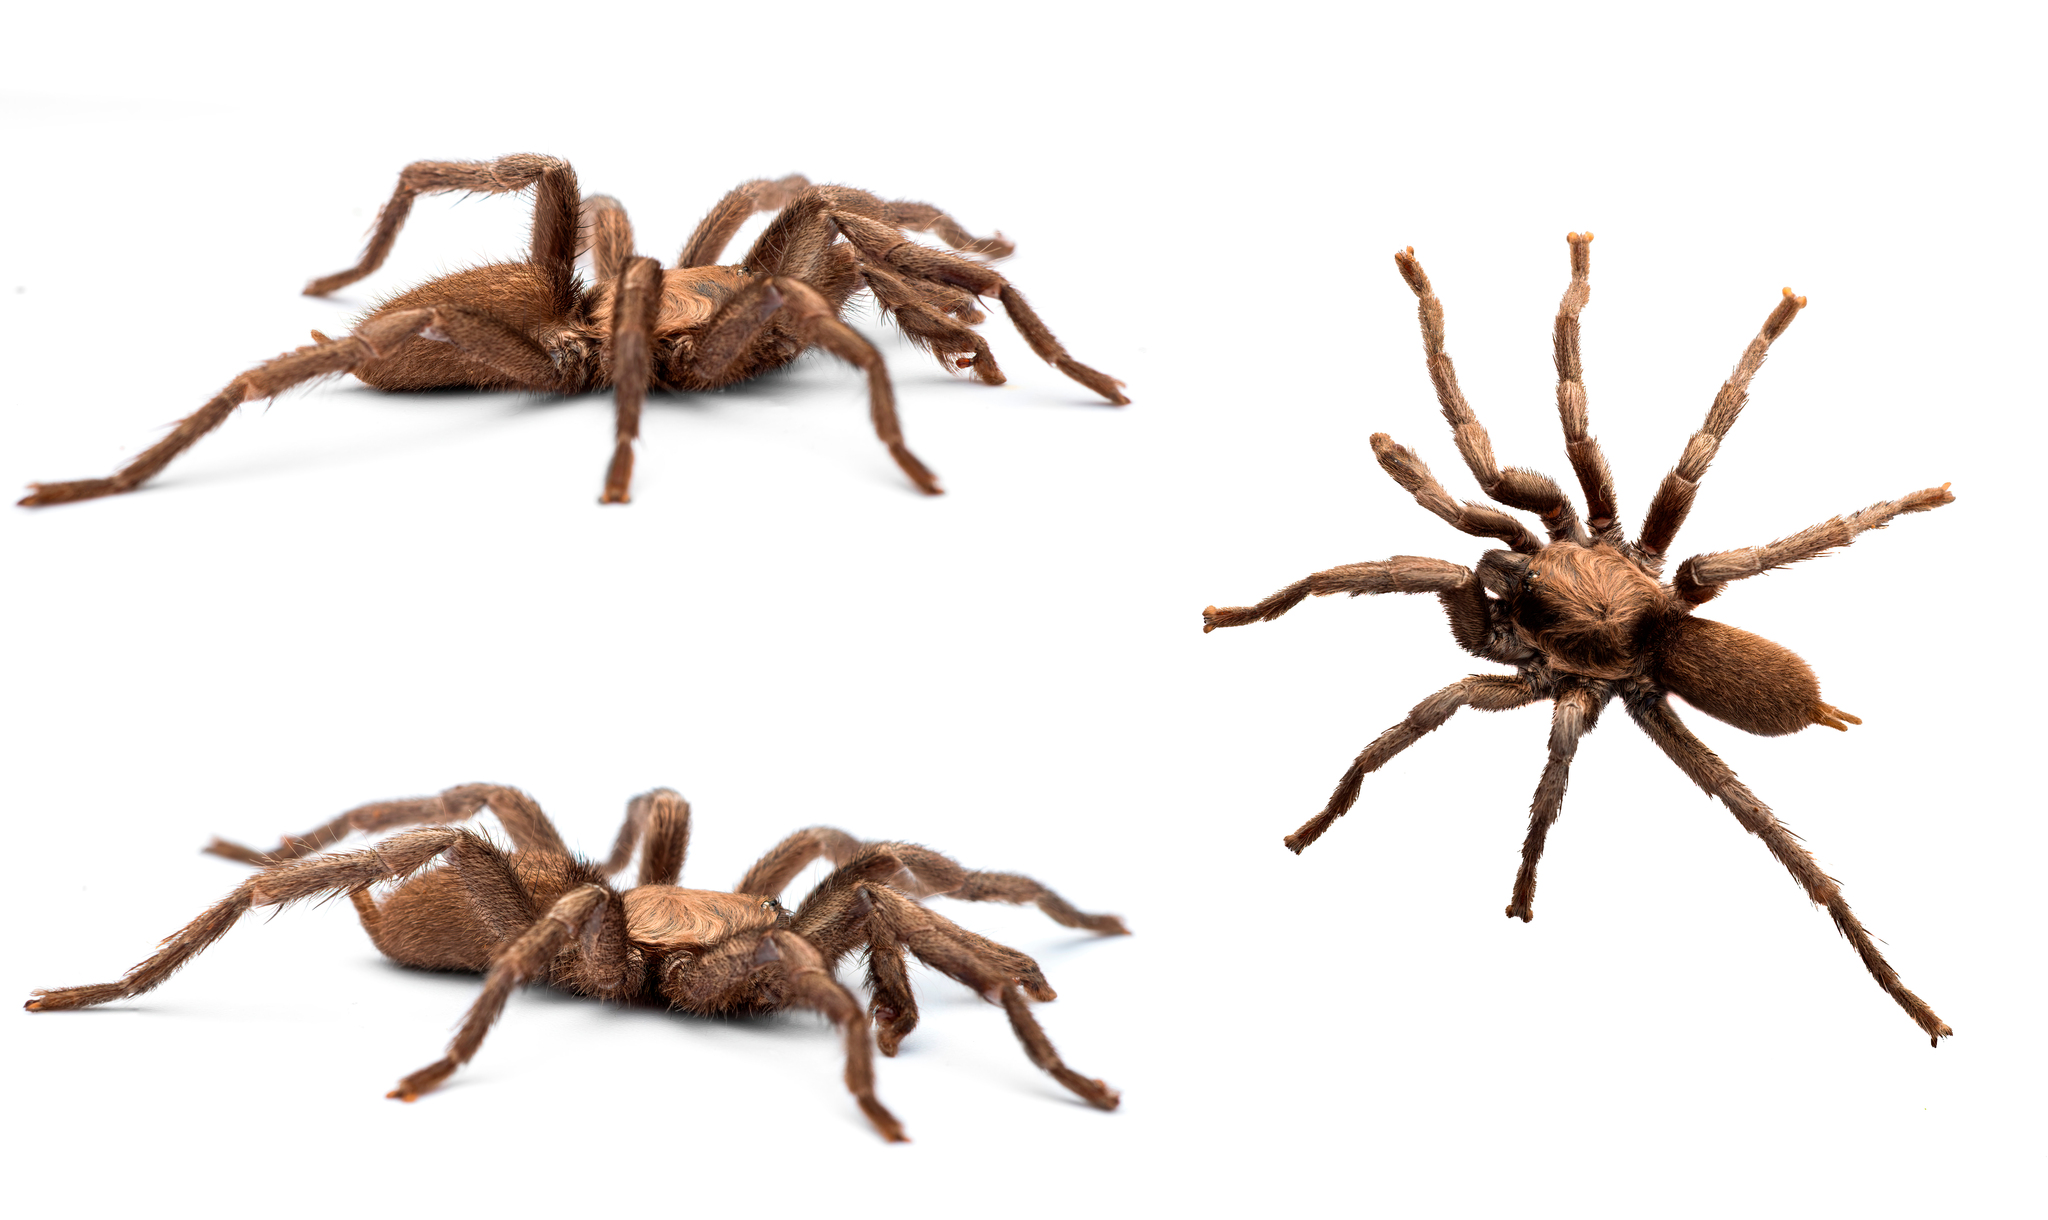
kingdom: Animalia
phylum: Arthropoda
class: Arachnida
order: Araneae
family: Theraphosidae
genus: Ischnocolus
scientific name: Ischnocolus valentinus
